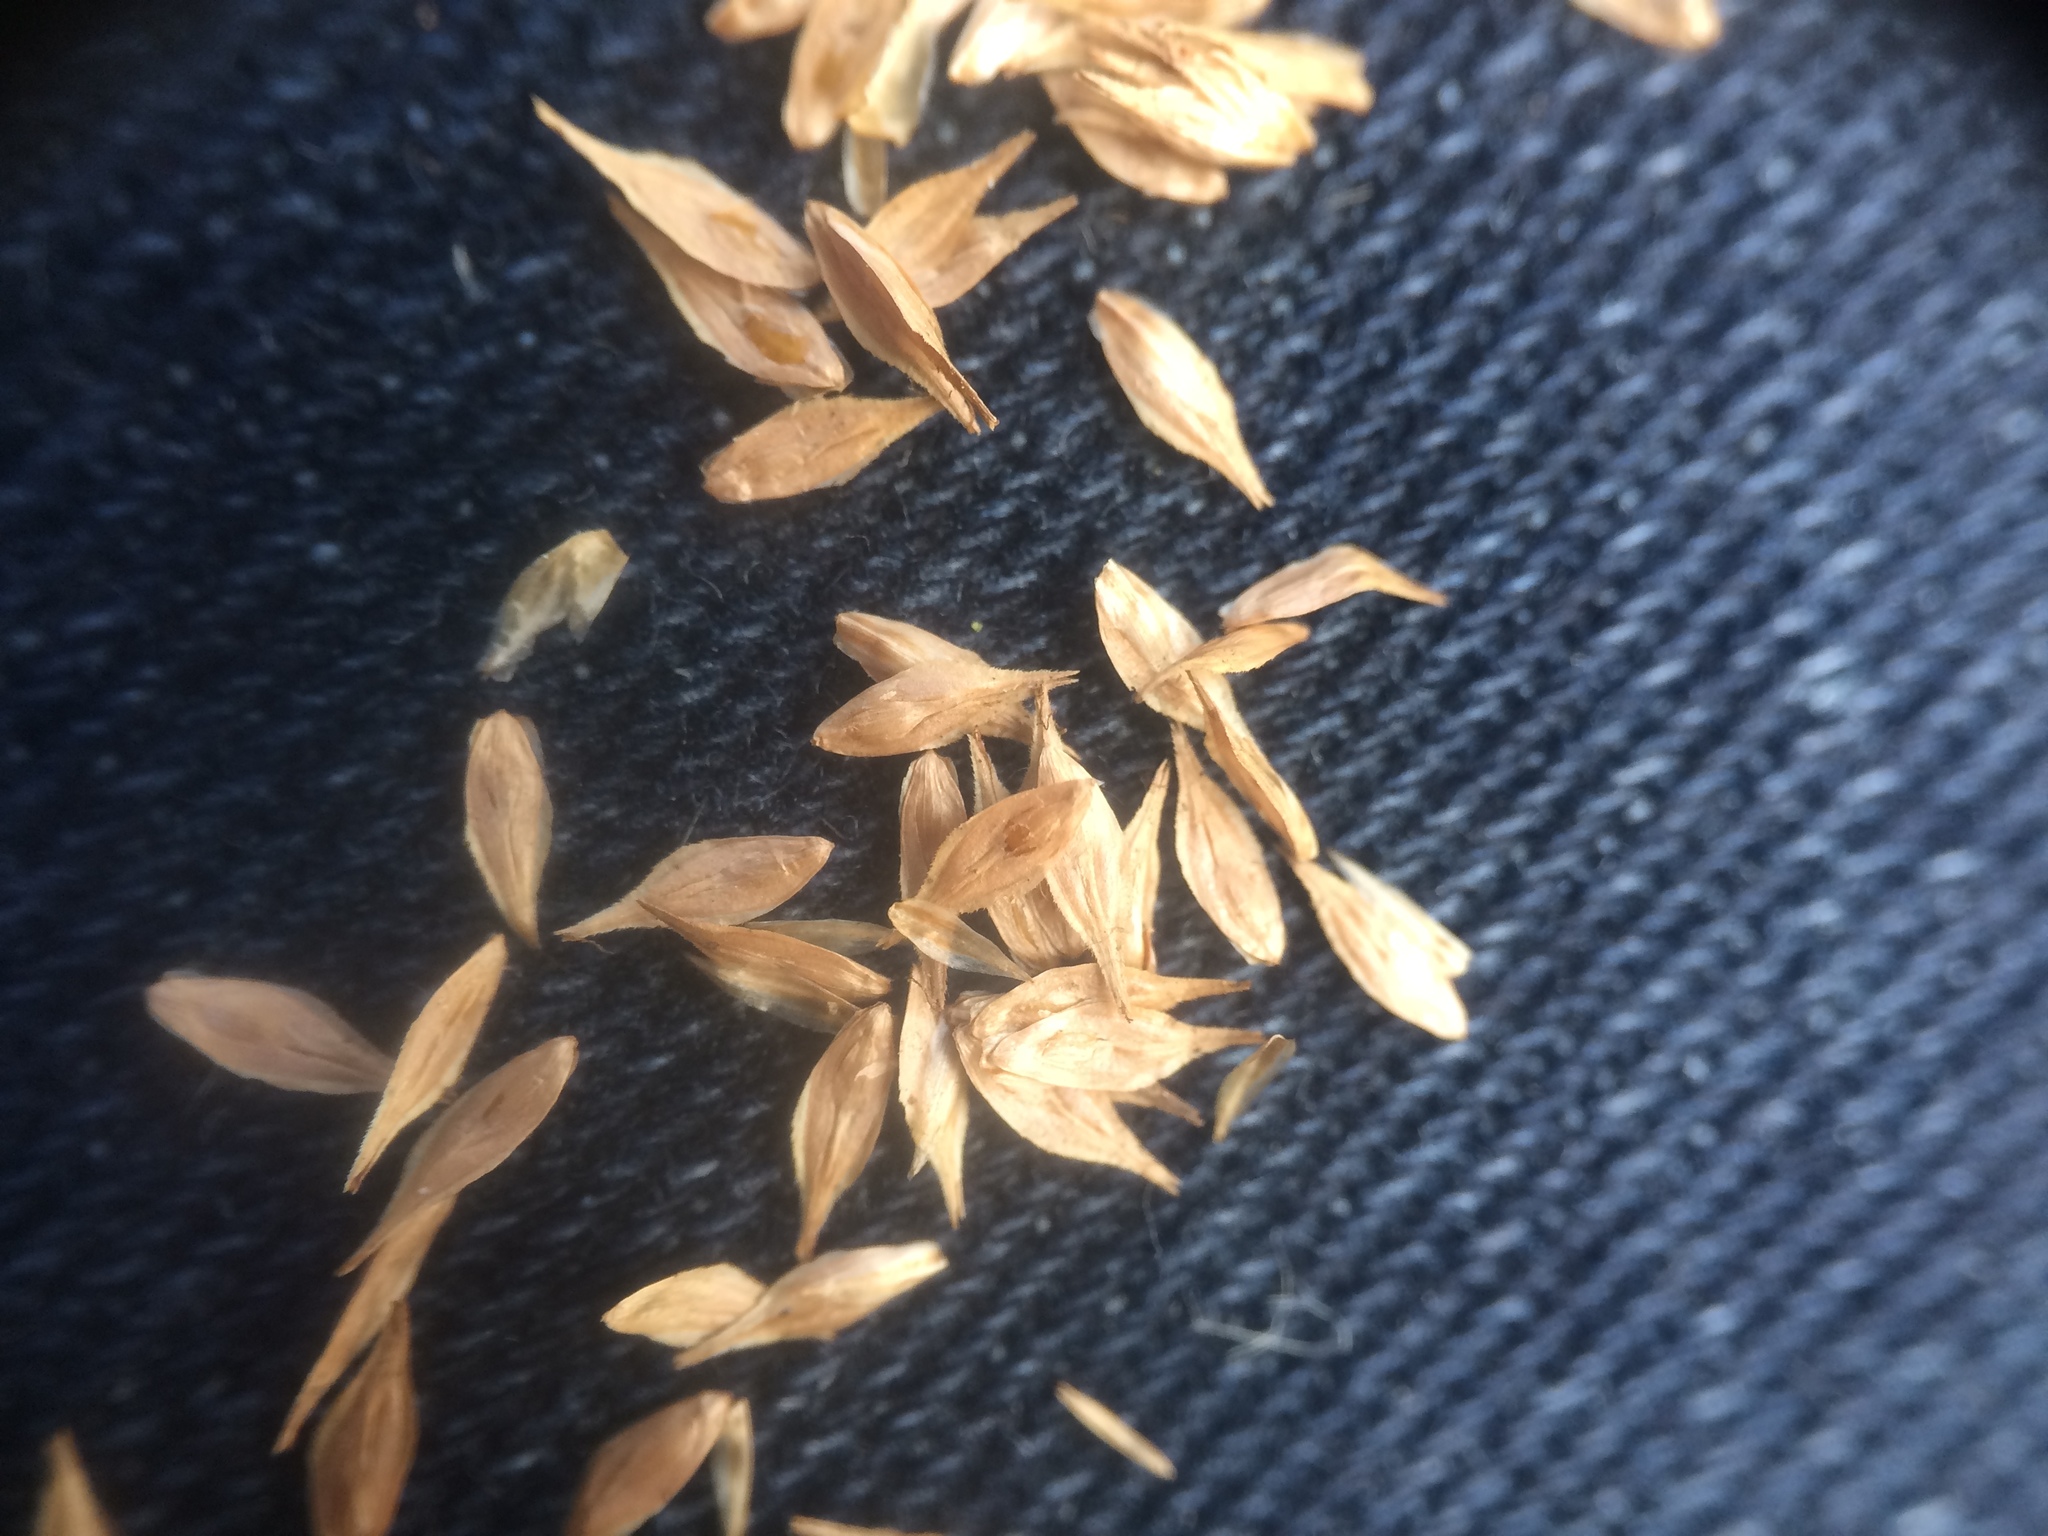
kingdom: Plantae
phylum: Tracheophyta
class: Liliopsida
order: Poales
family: Cyperaceae
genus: Carex
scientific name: Carex tribuloides
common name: Blunt broom sedge
